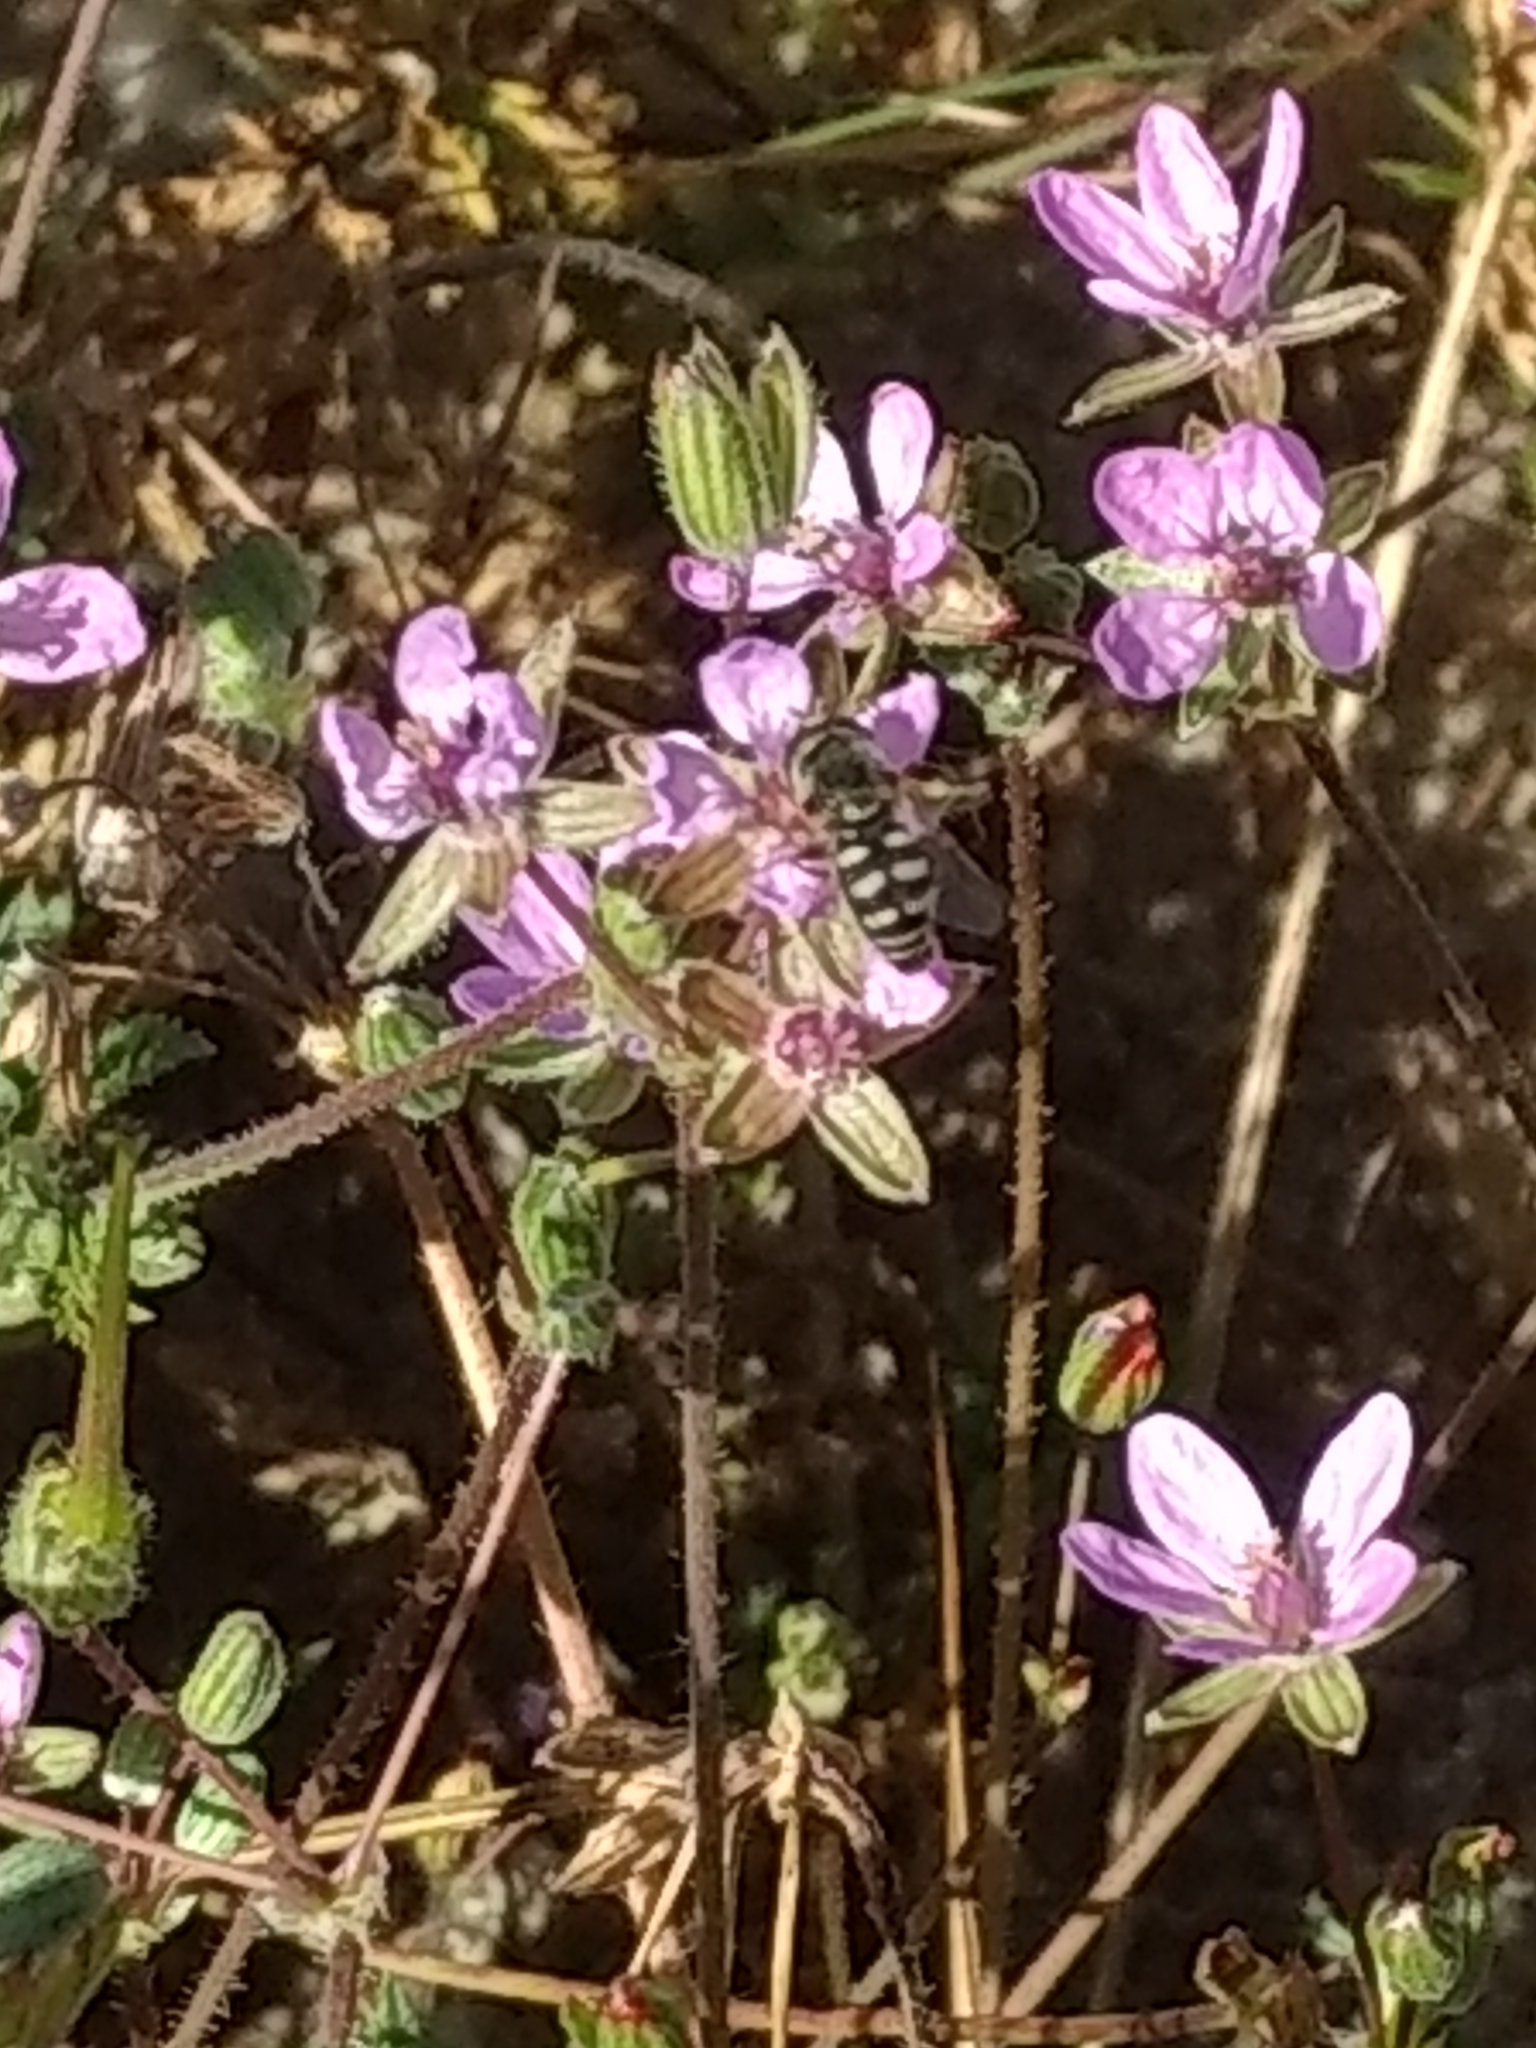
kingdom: Animalia
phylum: Arthropoda
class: Insecta
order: Diptera
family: Syrphidae
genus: Eupeodes
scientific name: Eupeodes volucris
